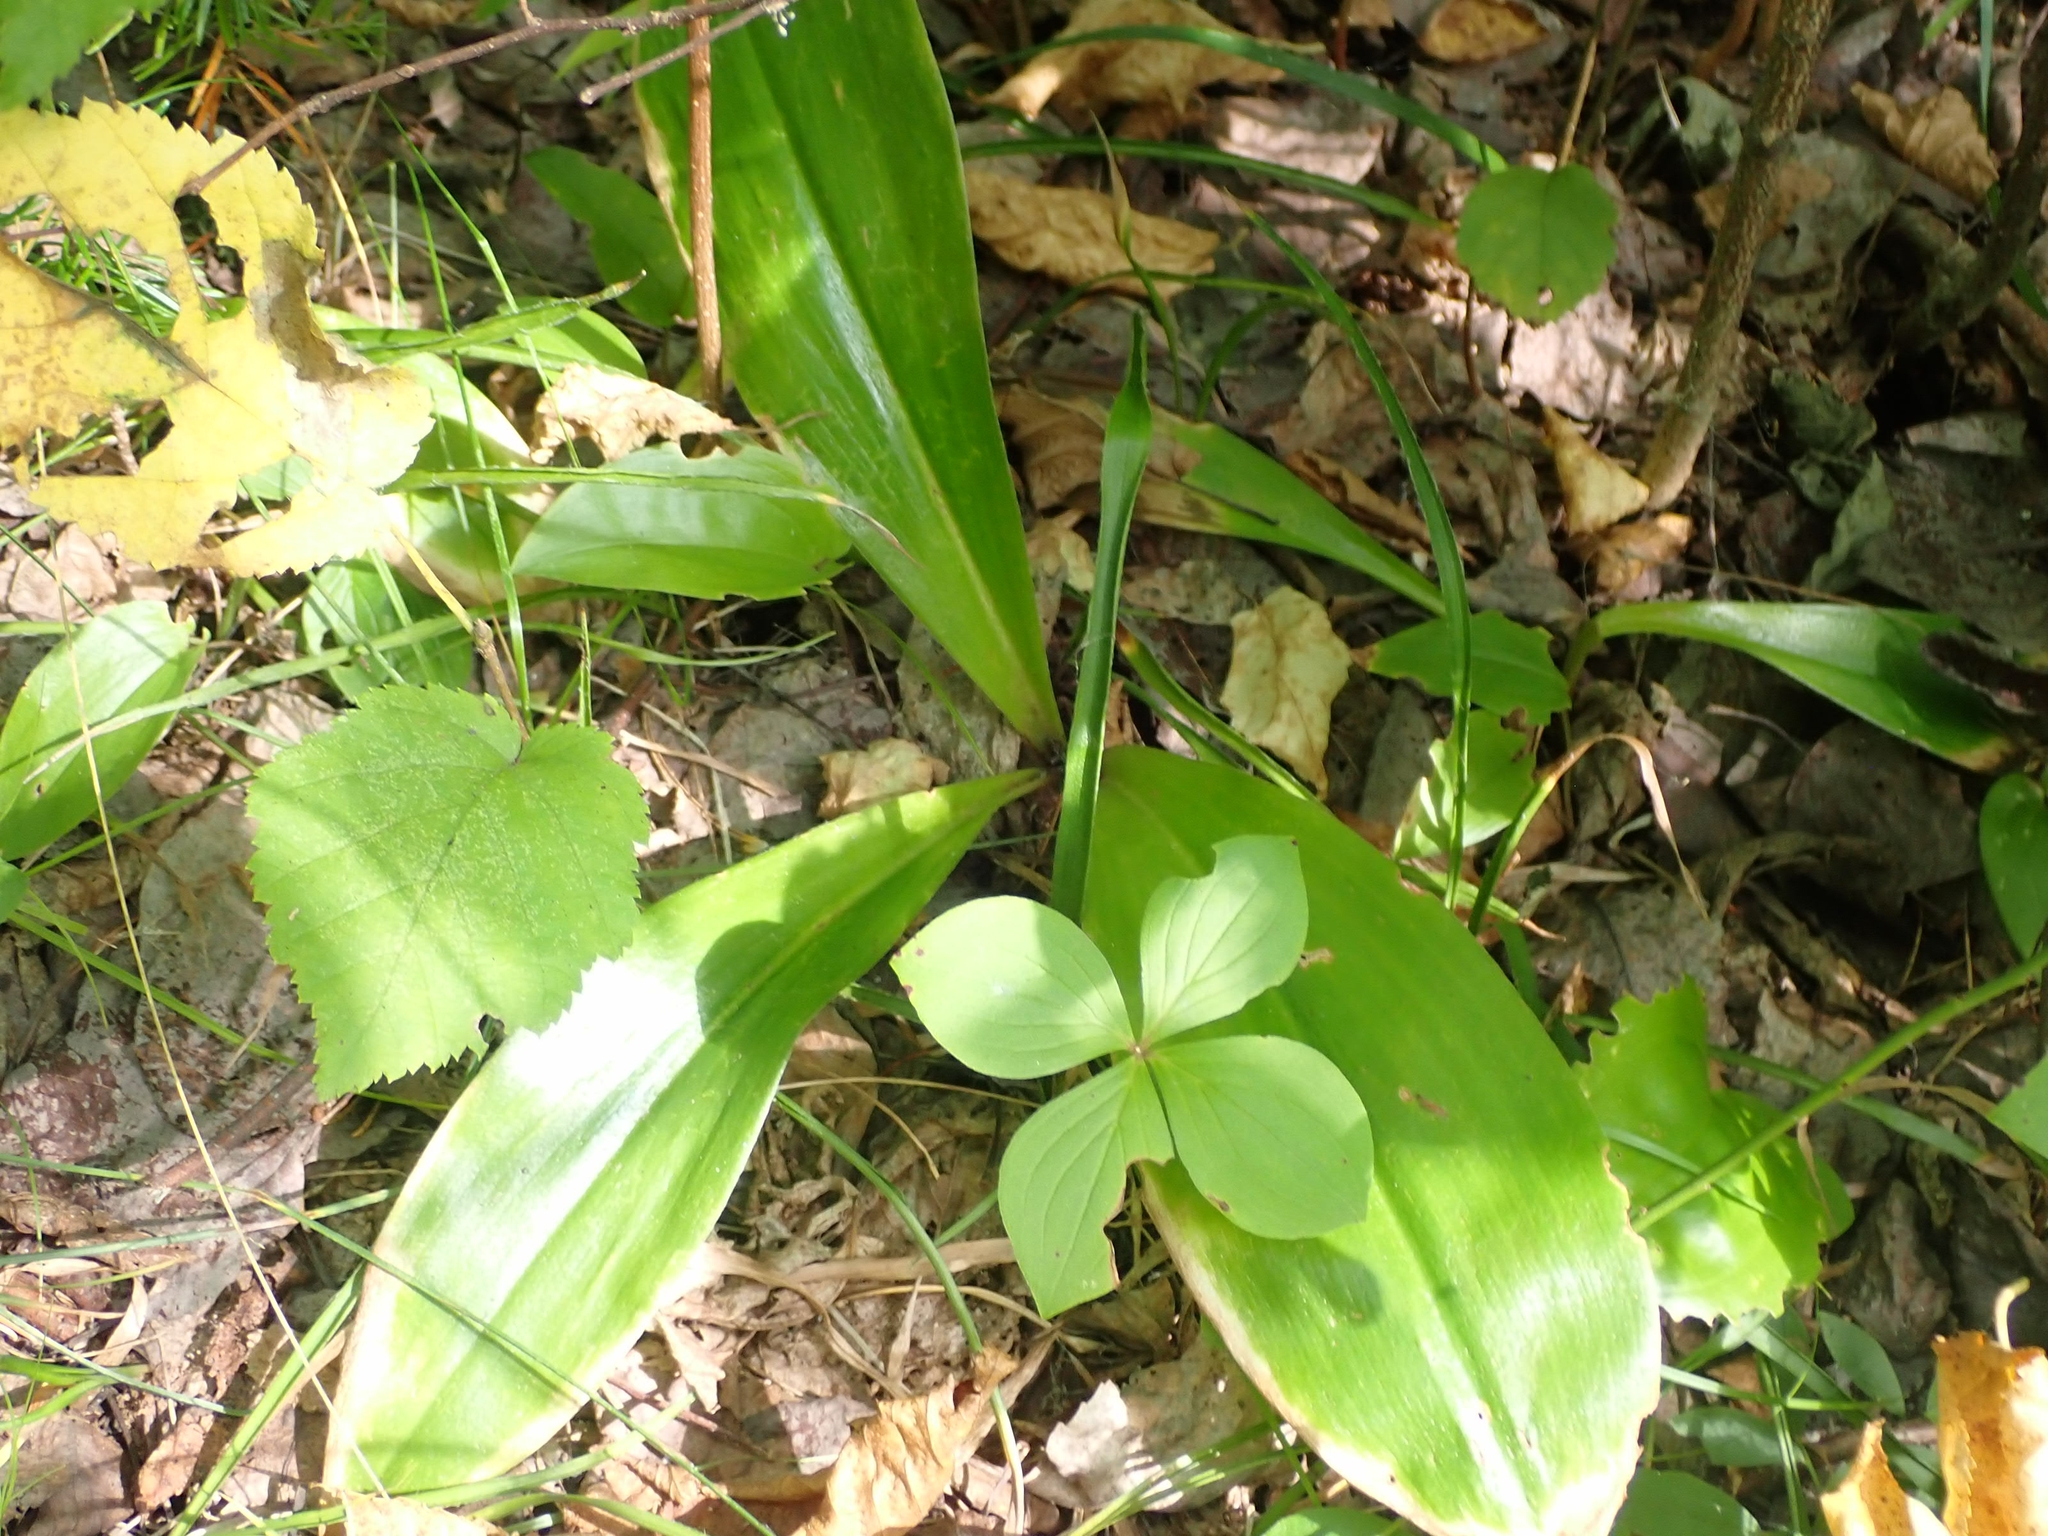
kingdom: Plantae
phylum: Tracheophyta
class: Liliopsida
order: Liliales
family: Liliaceae
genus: Clintonia
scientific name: Clintonia borealis
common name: Yellow clintonia
